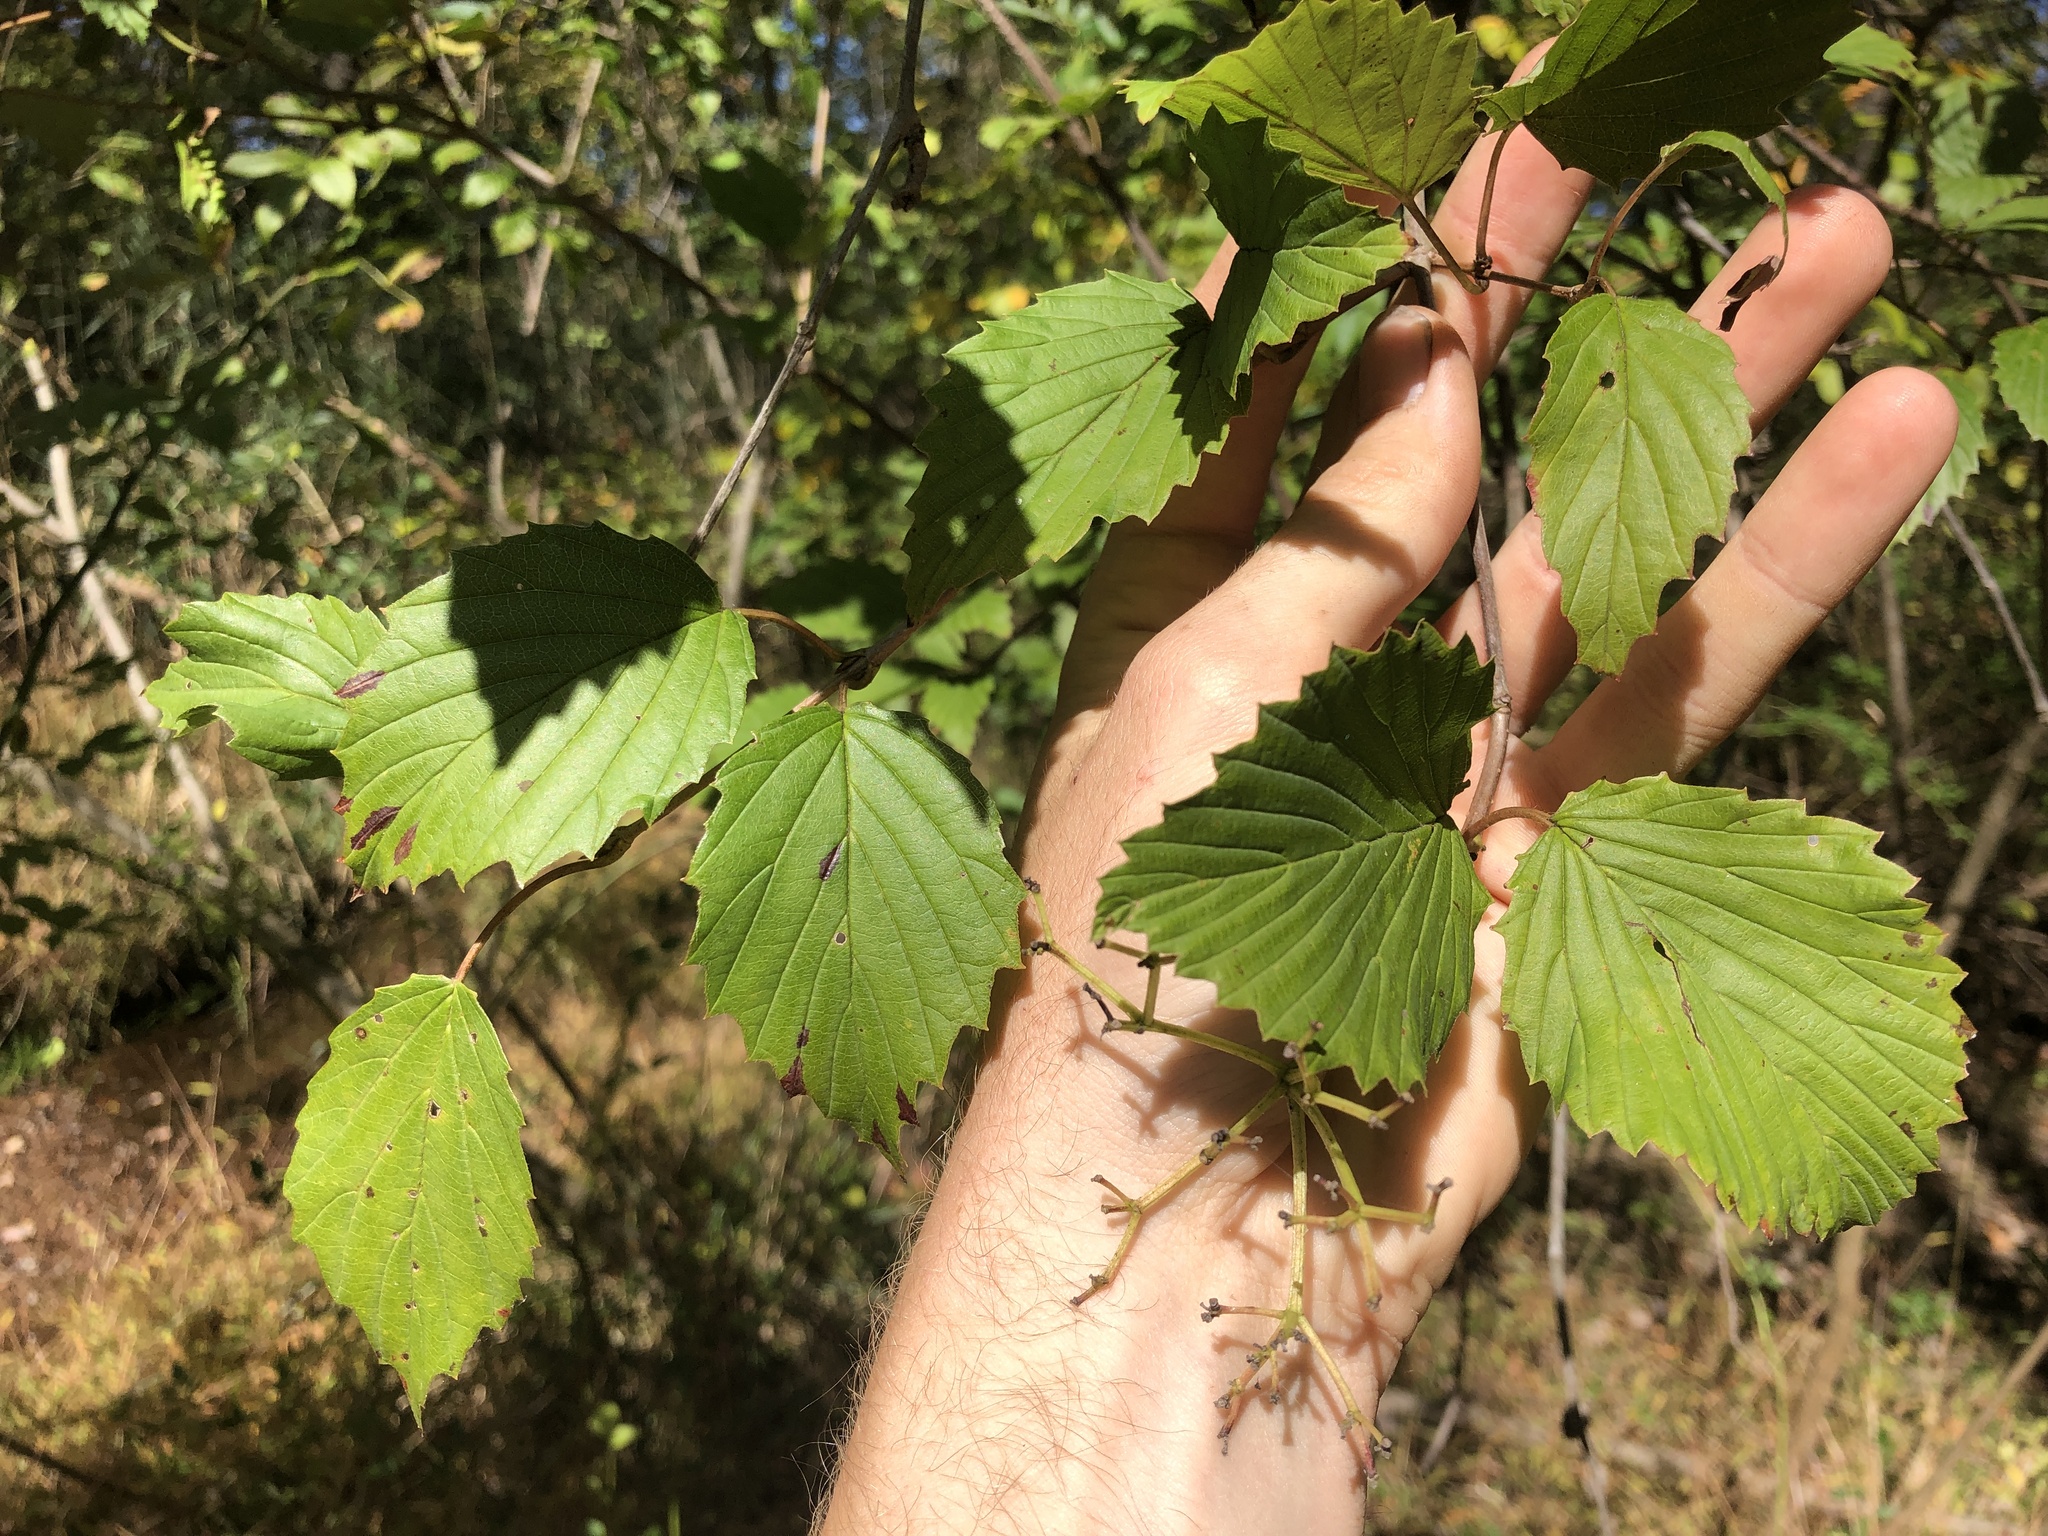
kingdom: Plantae
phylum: Tracheophyta
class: Magnoliopsida
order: Dipsacales
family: Viburnaceae
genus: Viburnum
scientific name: Viburnum dentatum
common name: Arrow-wood
